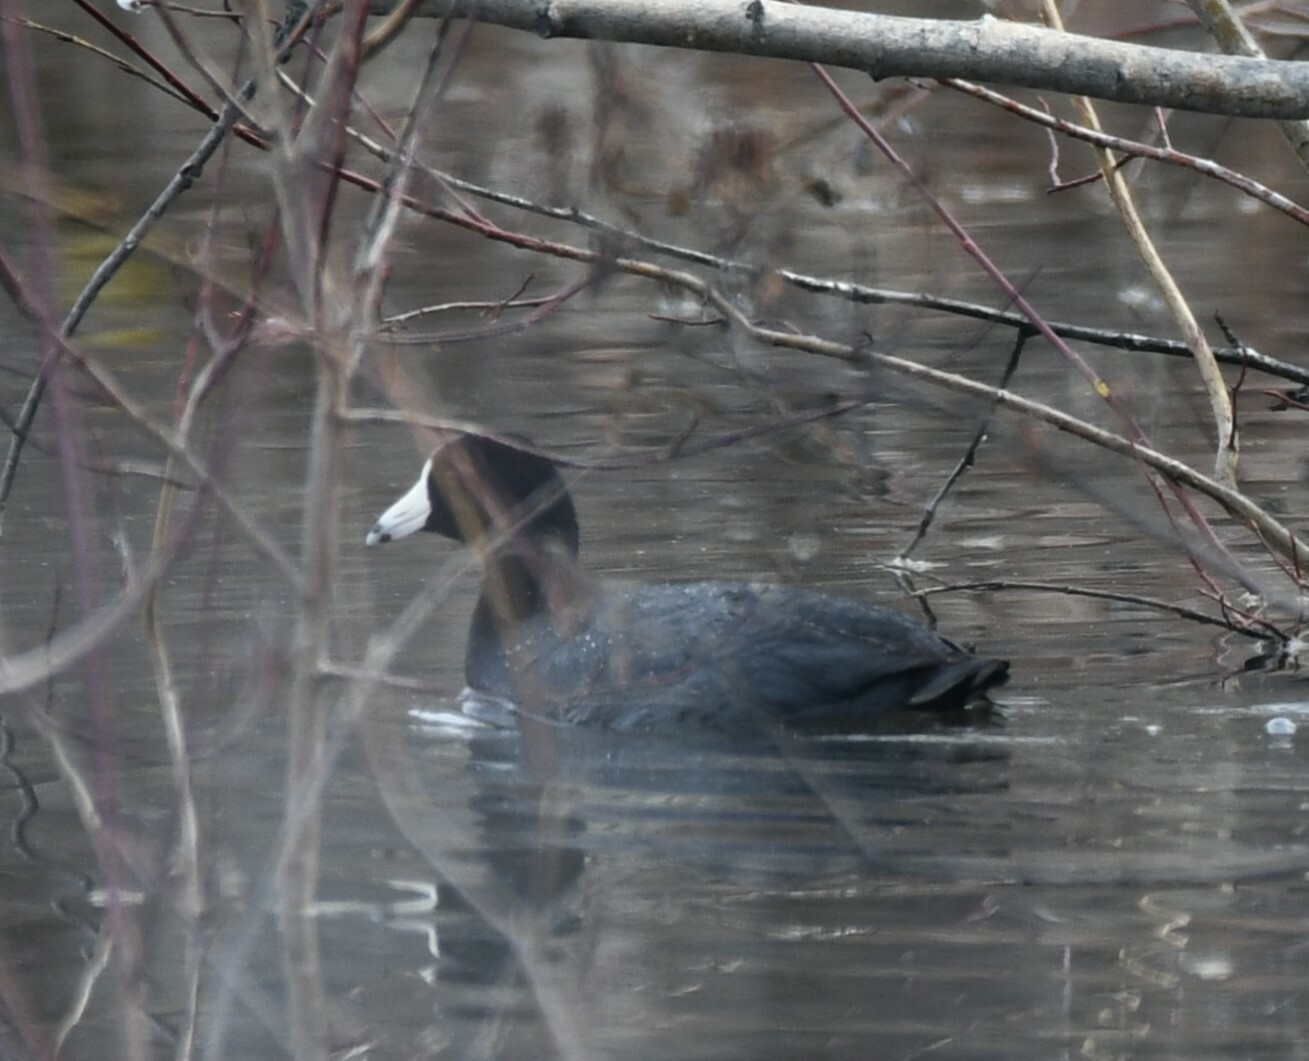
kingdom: Animalia
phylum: Chordata
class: Aves
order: Gruiformes
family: Rallidae
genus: Fulica
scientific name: Fulica americana
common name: American coot
